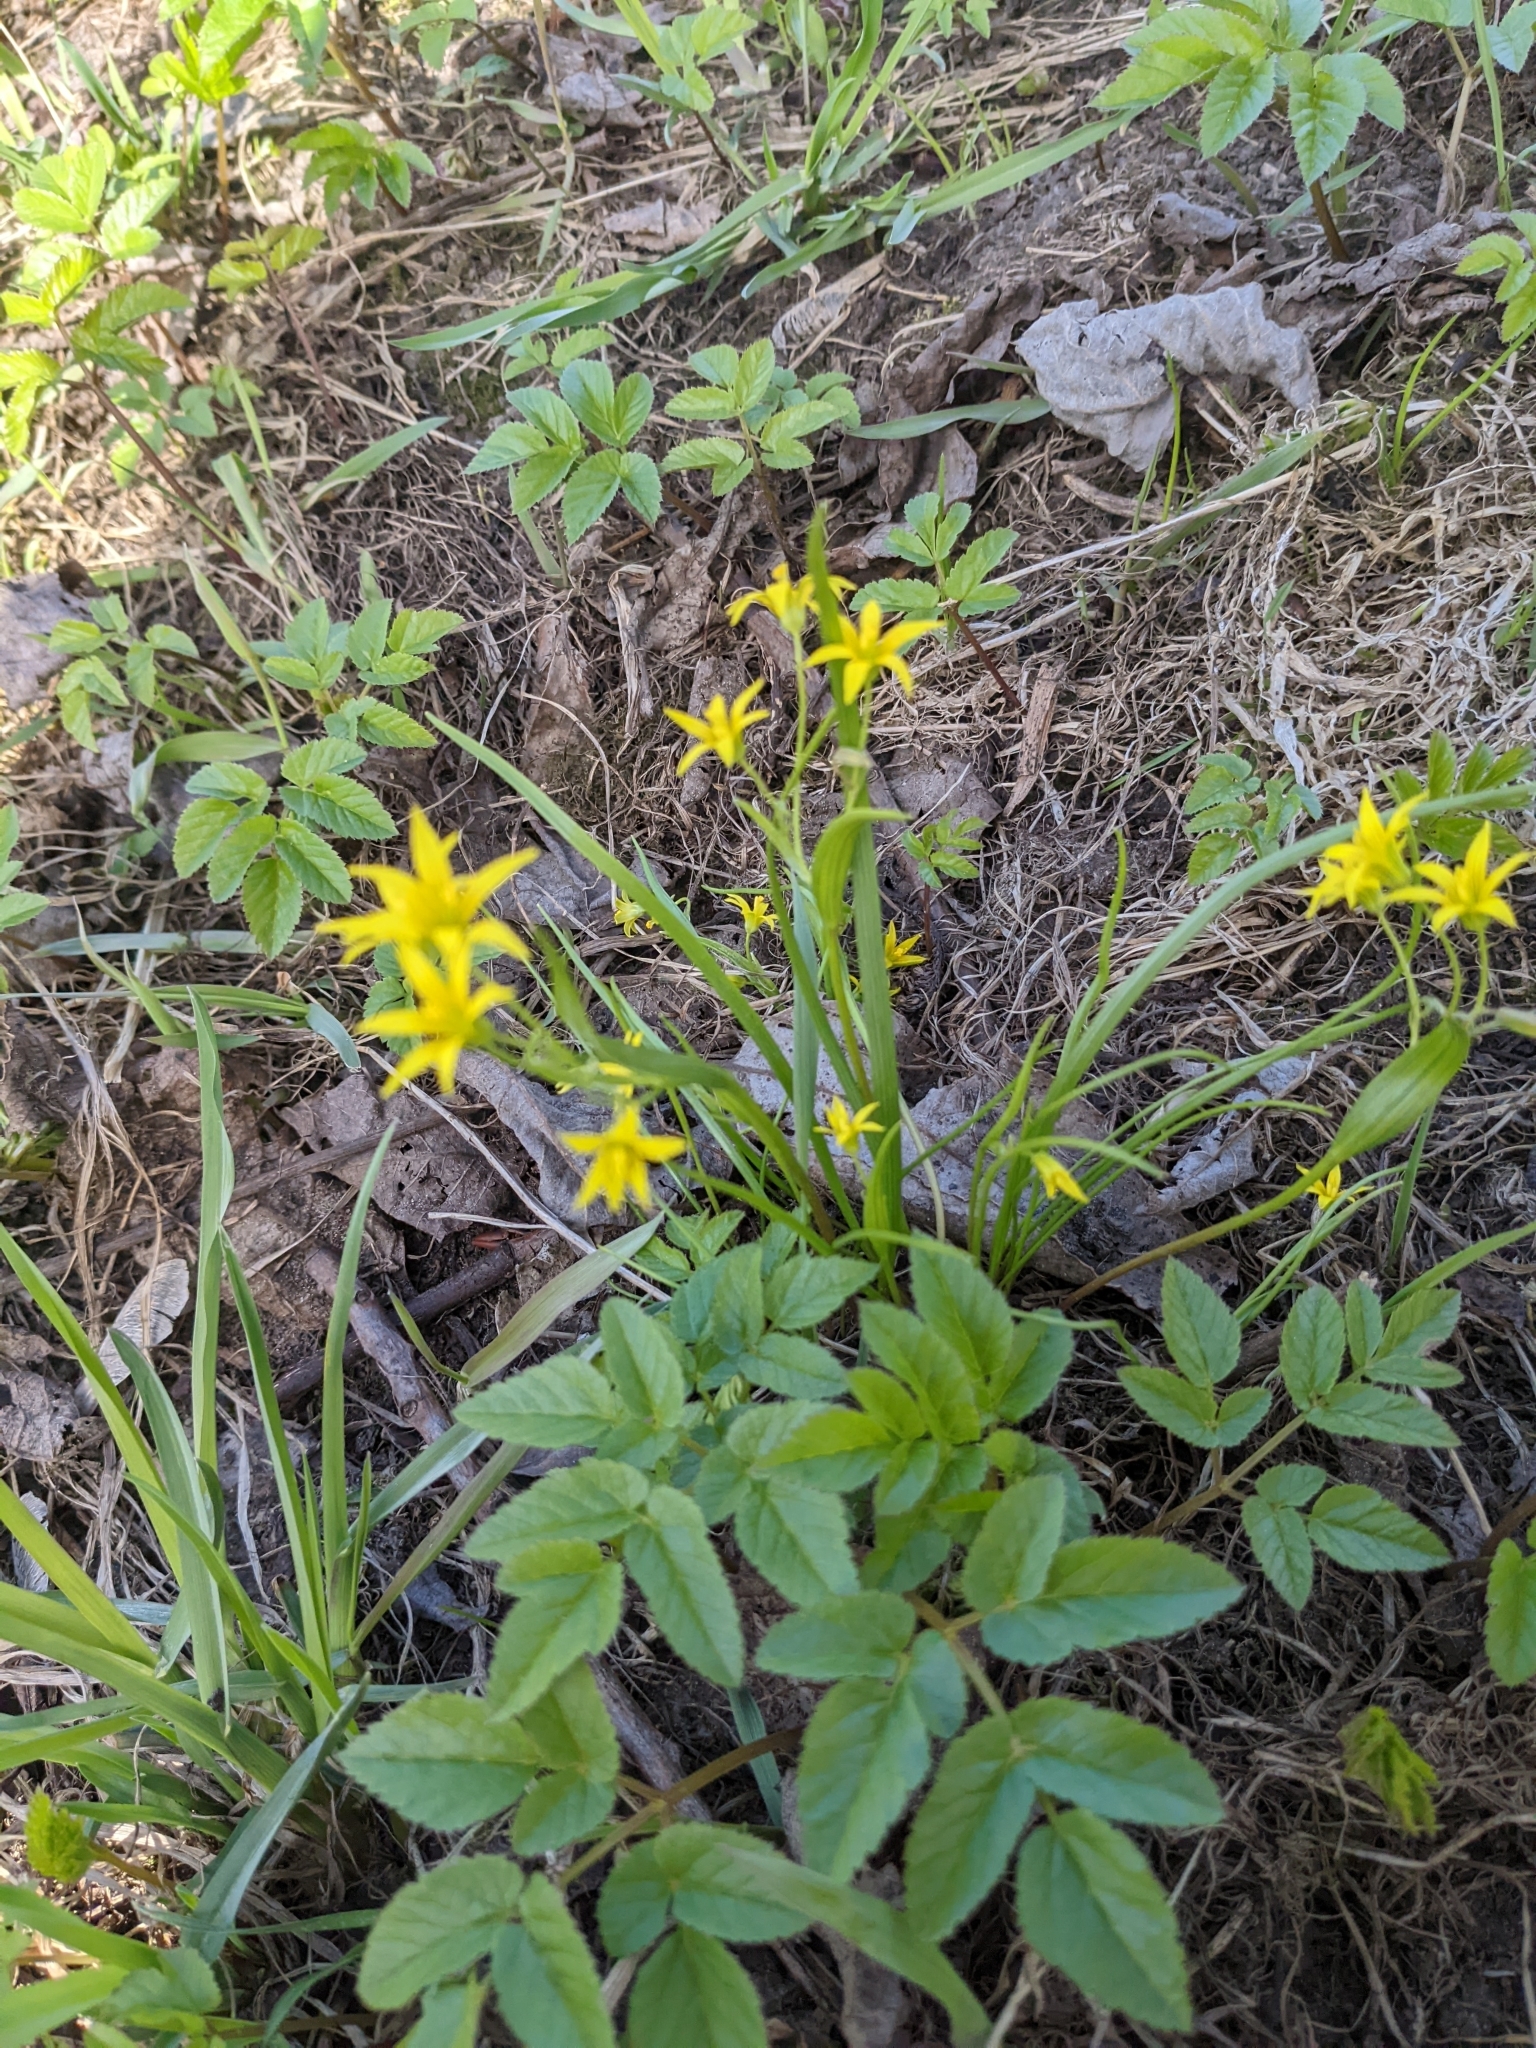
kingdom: Plantae
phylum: Tracheophyta
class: Liliopsida
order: Liliales
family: Liliaceae
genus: Gagea
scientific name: Gagea minima
